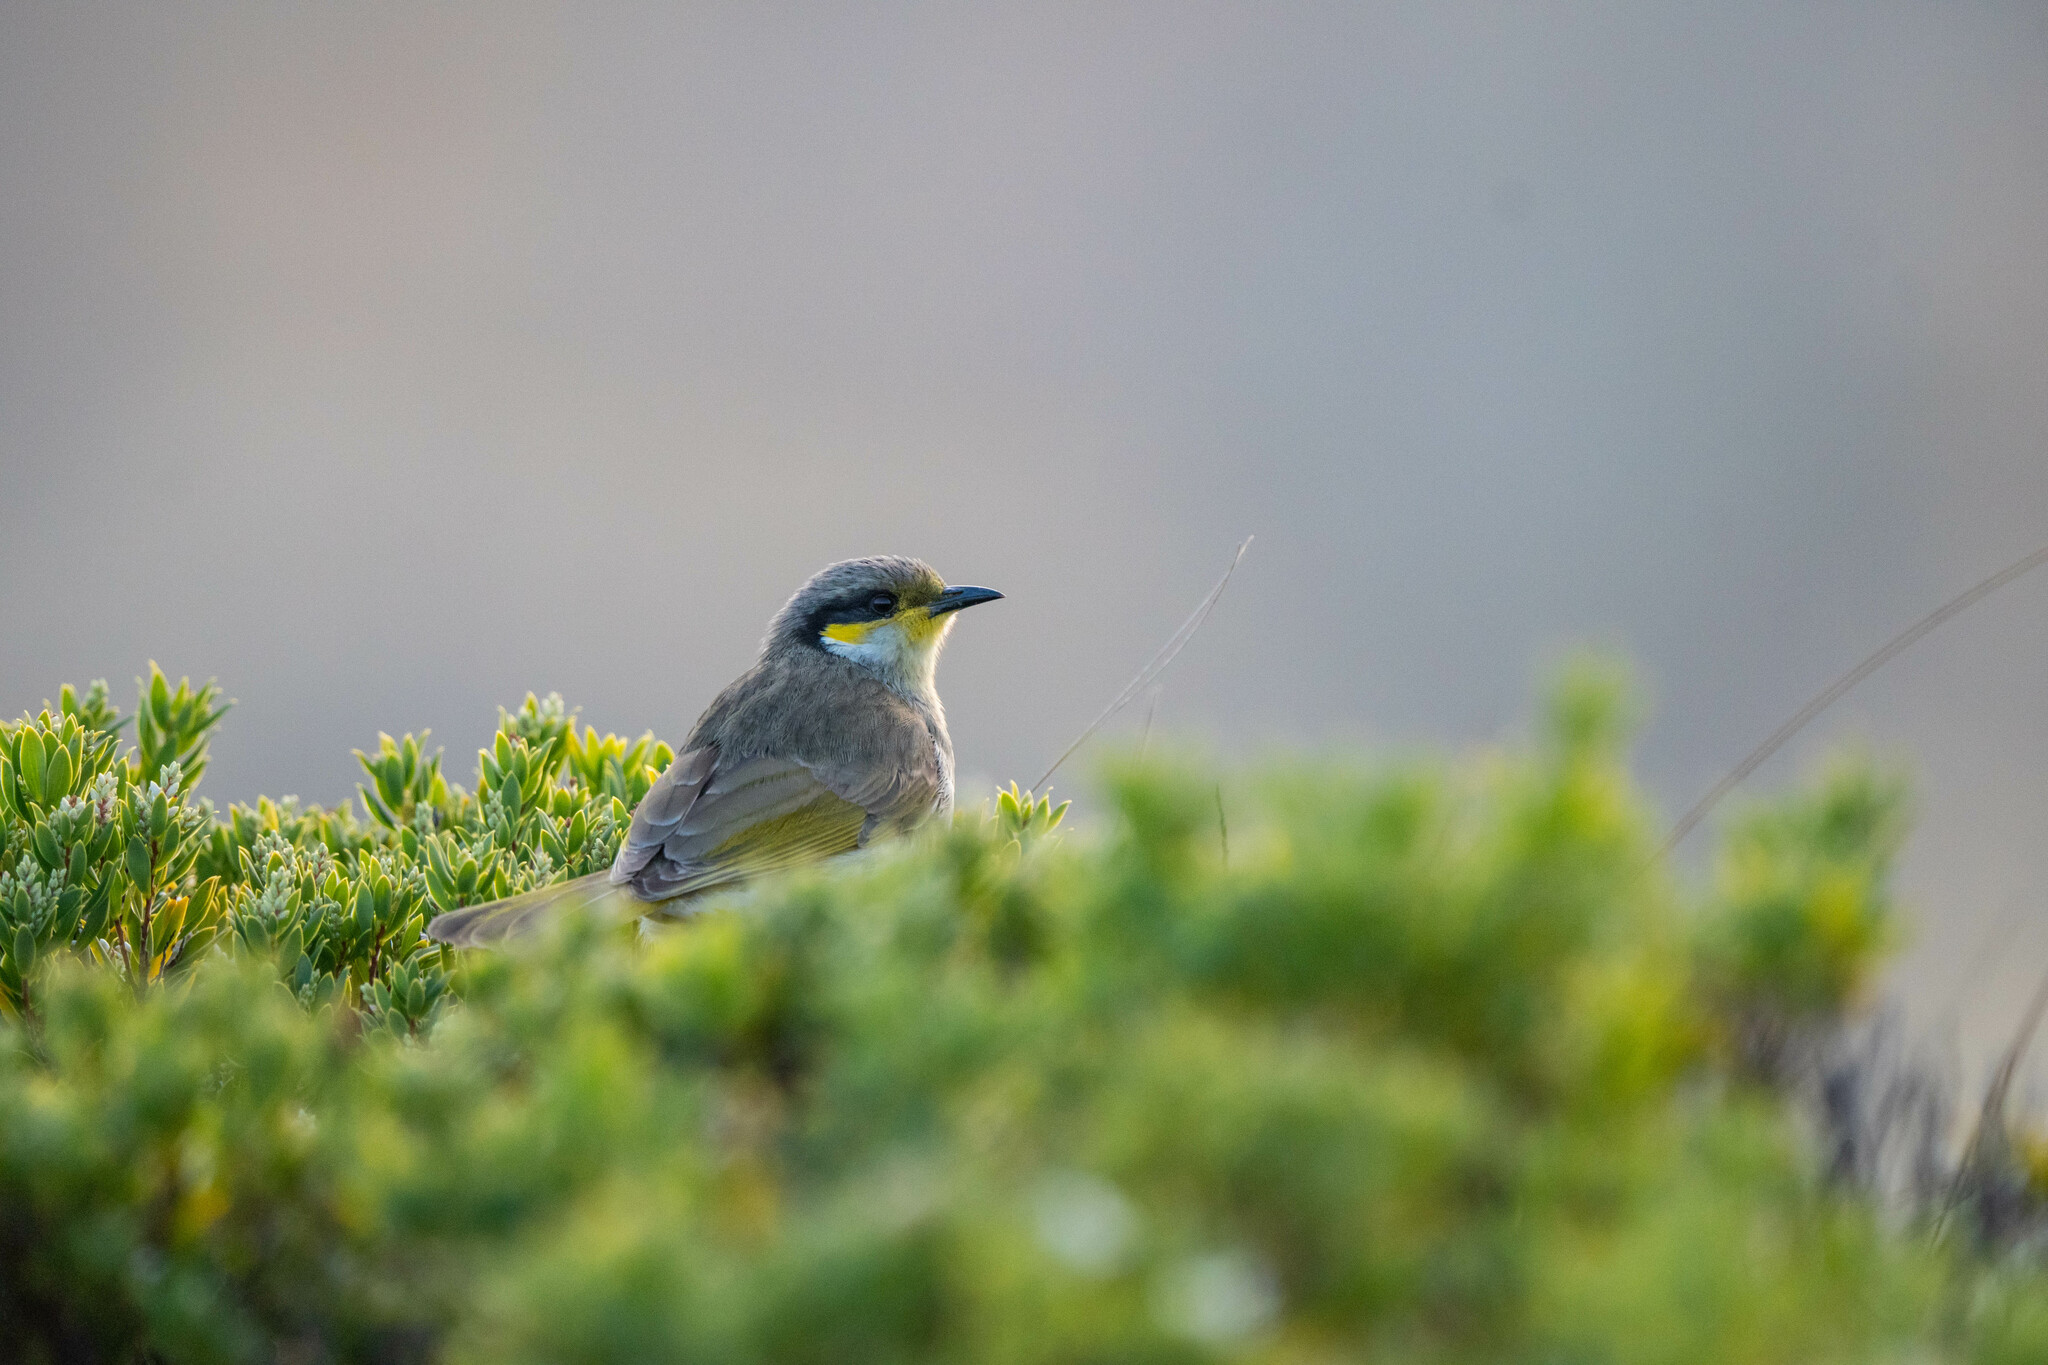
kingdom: Animalia
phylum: Chordata
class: Aves
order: Passeriformes
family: Meliphagidae
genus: Gavicalis
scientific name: Gavicalis virescens
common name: Singing honeyeater
